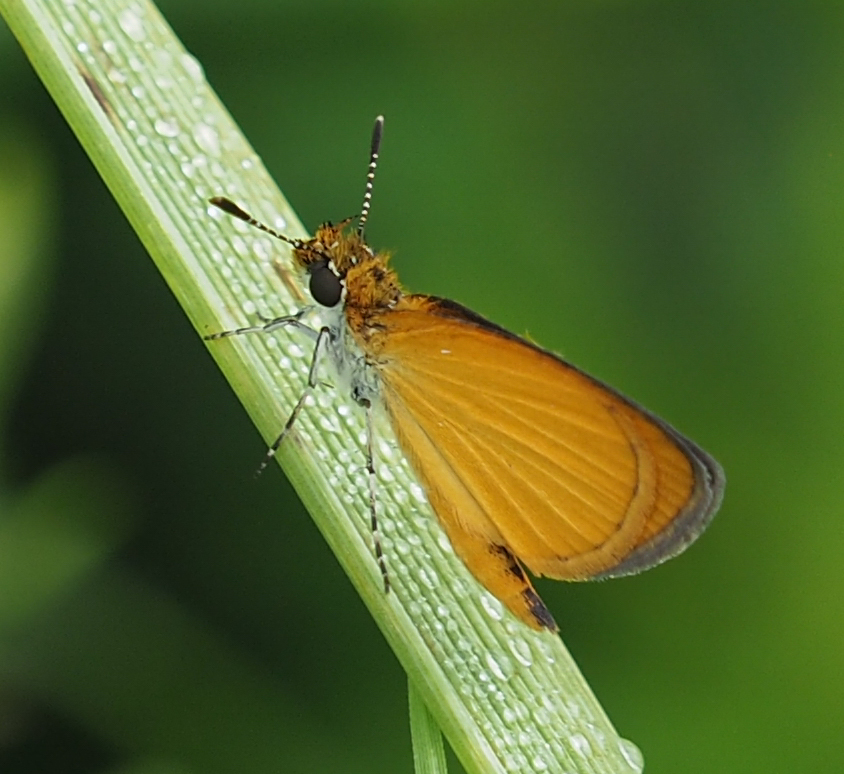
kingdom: Animalia
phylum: Arthropoda
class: Insecta
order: Lepidoptera
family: Hesperiidae
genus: Ancyloxypha
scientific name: Ancyloxypha numitor
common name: Least skipper
